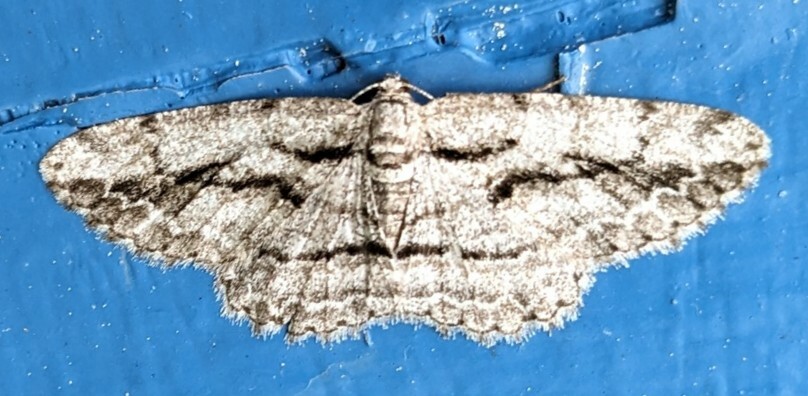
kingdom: Animalia
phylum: Arthropoda
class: Insecta
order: Lepidoptera
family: Geometridae
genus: Anavitrinella
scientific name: Anavitrinella pampinaria
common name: Common gray
